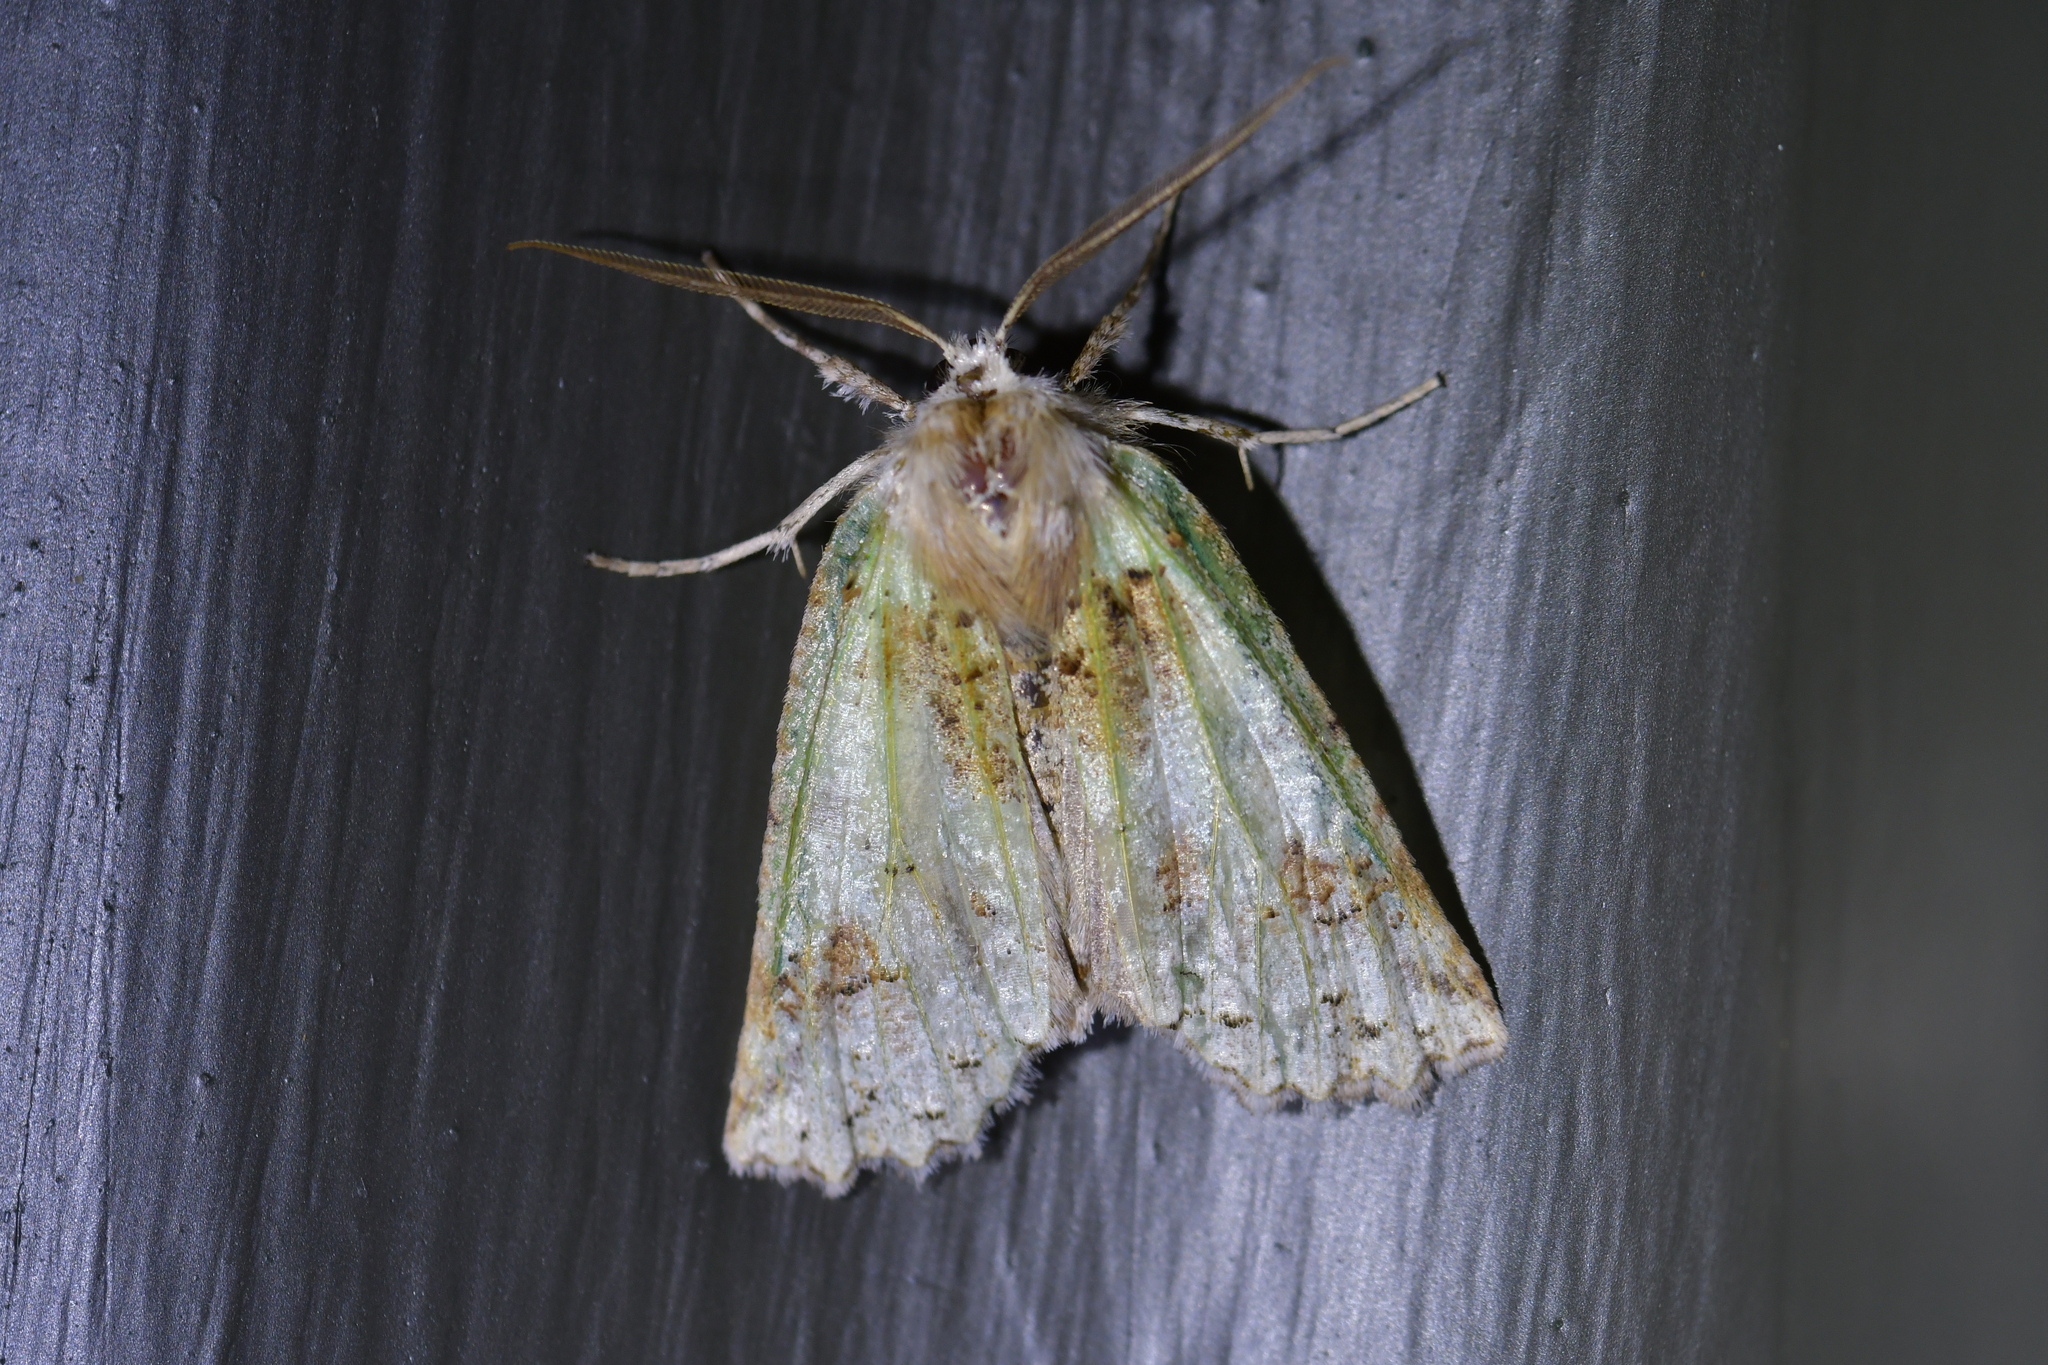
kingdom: Animalia
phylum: Arthropoda
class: Insecta
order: Lepidoptera
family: Geometridae
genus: Declana
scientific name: Declana floccosa
